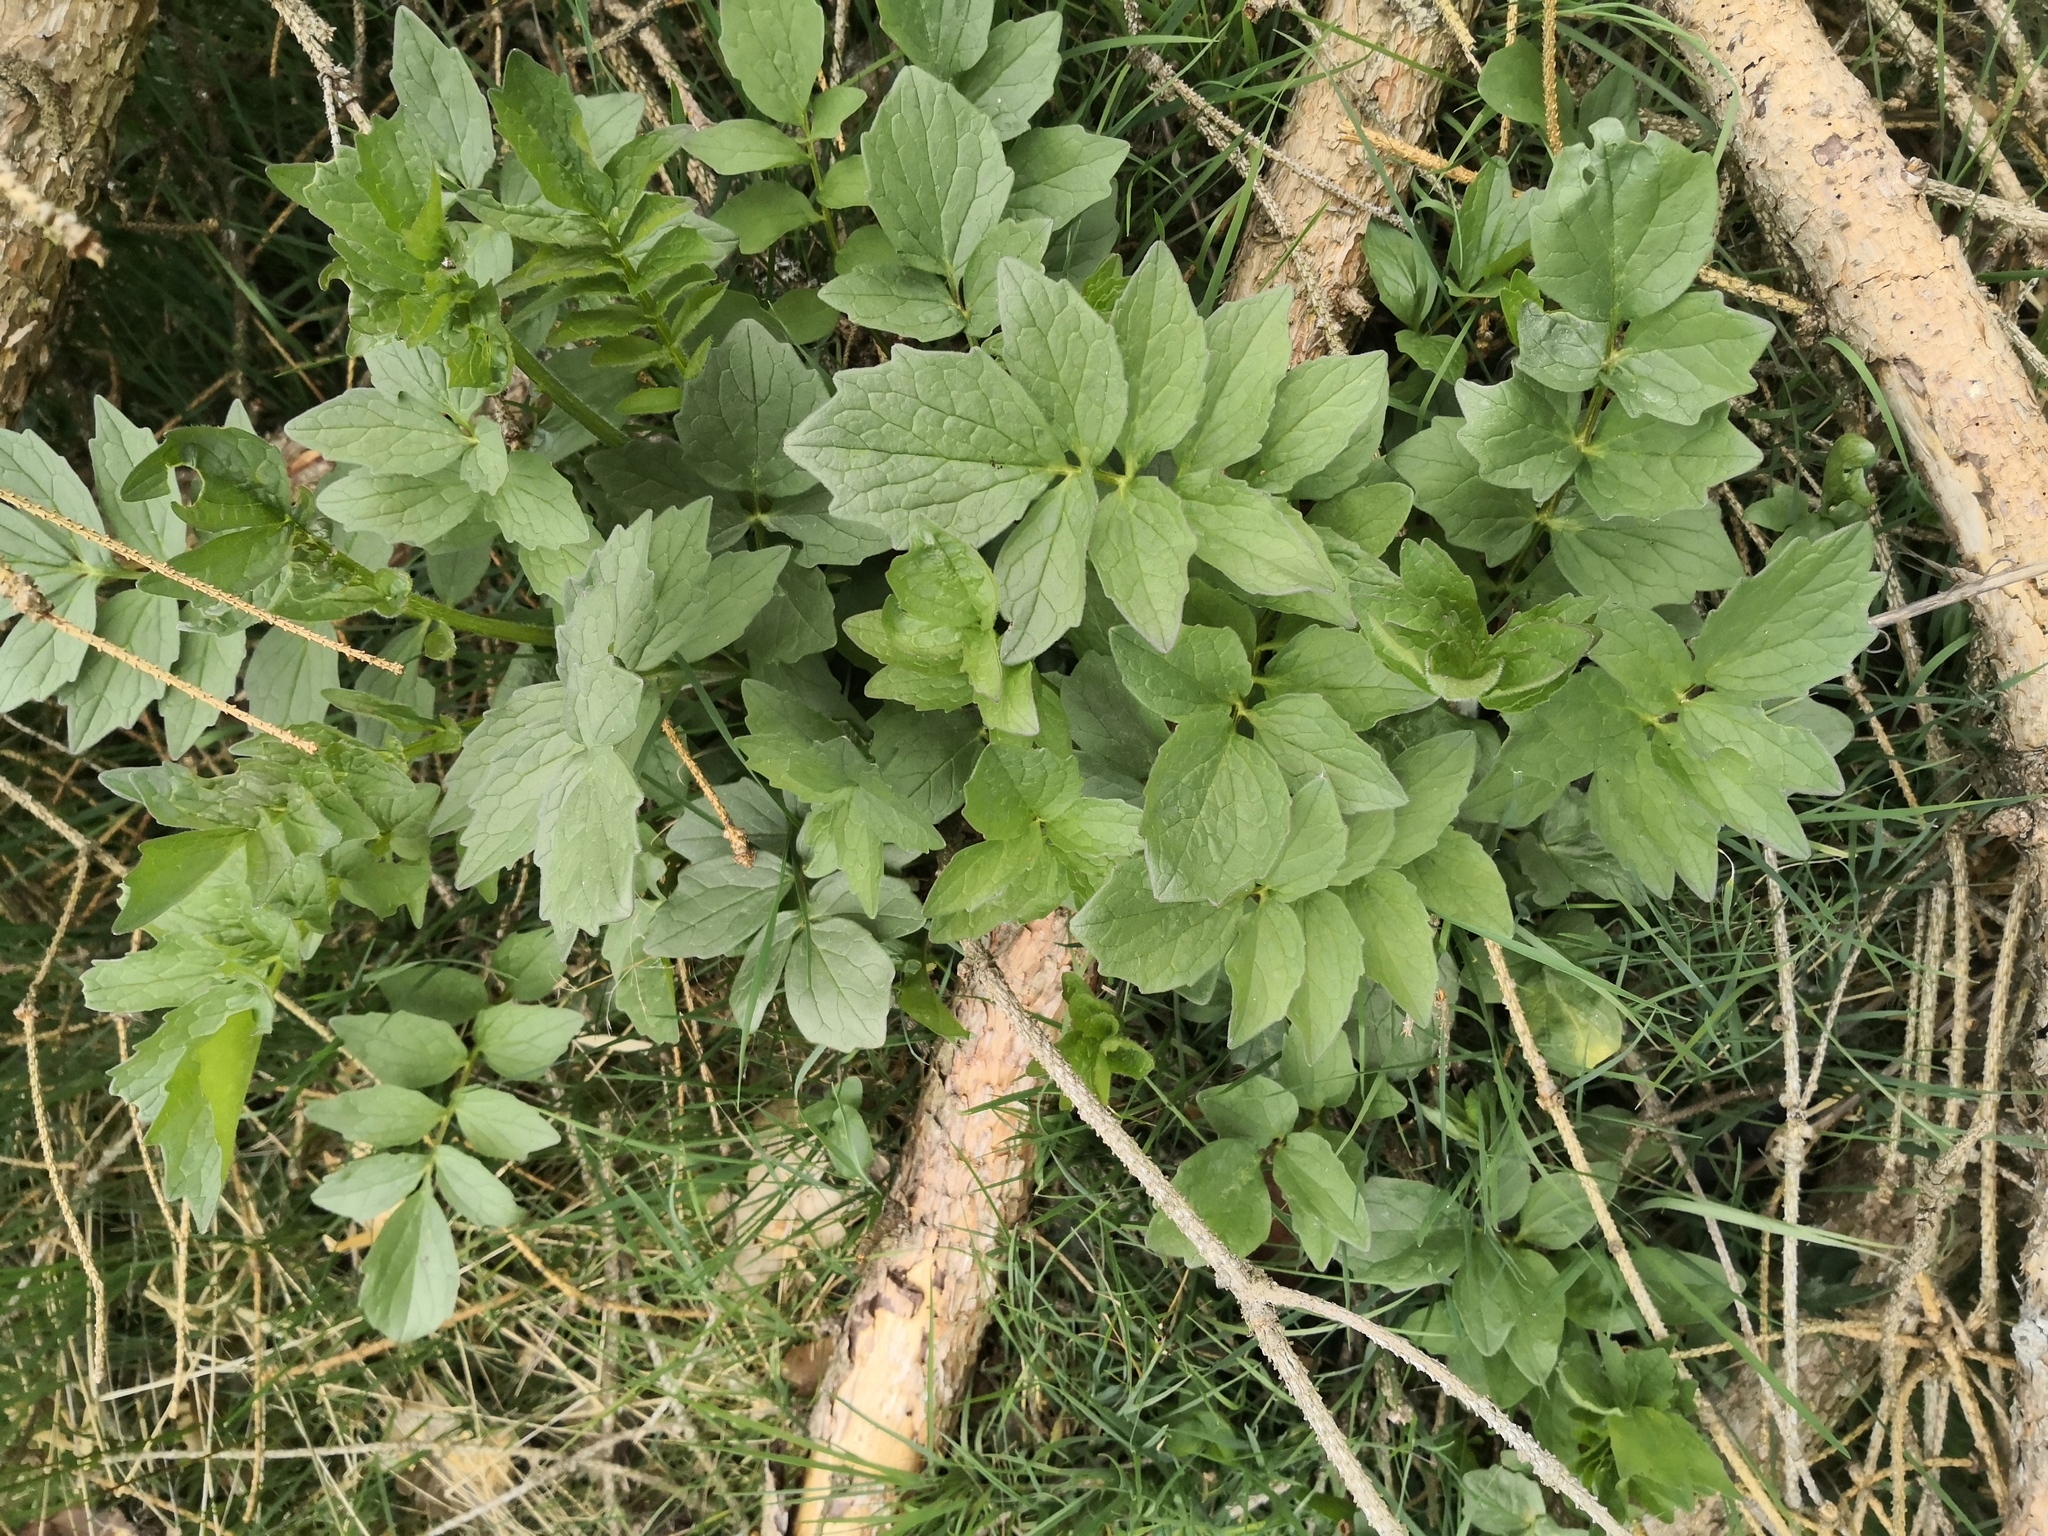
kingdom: Plantae
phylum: Tracheophyta
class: Magnoliopsida
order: Rosales
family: Rosaceae
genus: Filipendula
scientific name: Filipendula ulmaria
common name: Meadowsweet
